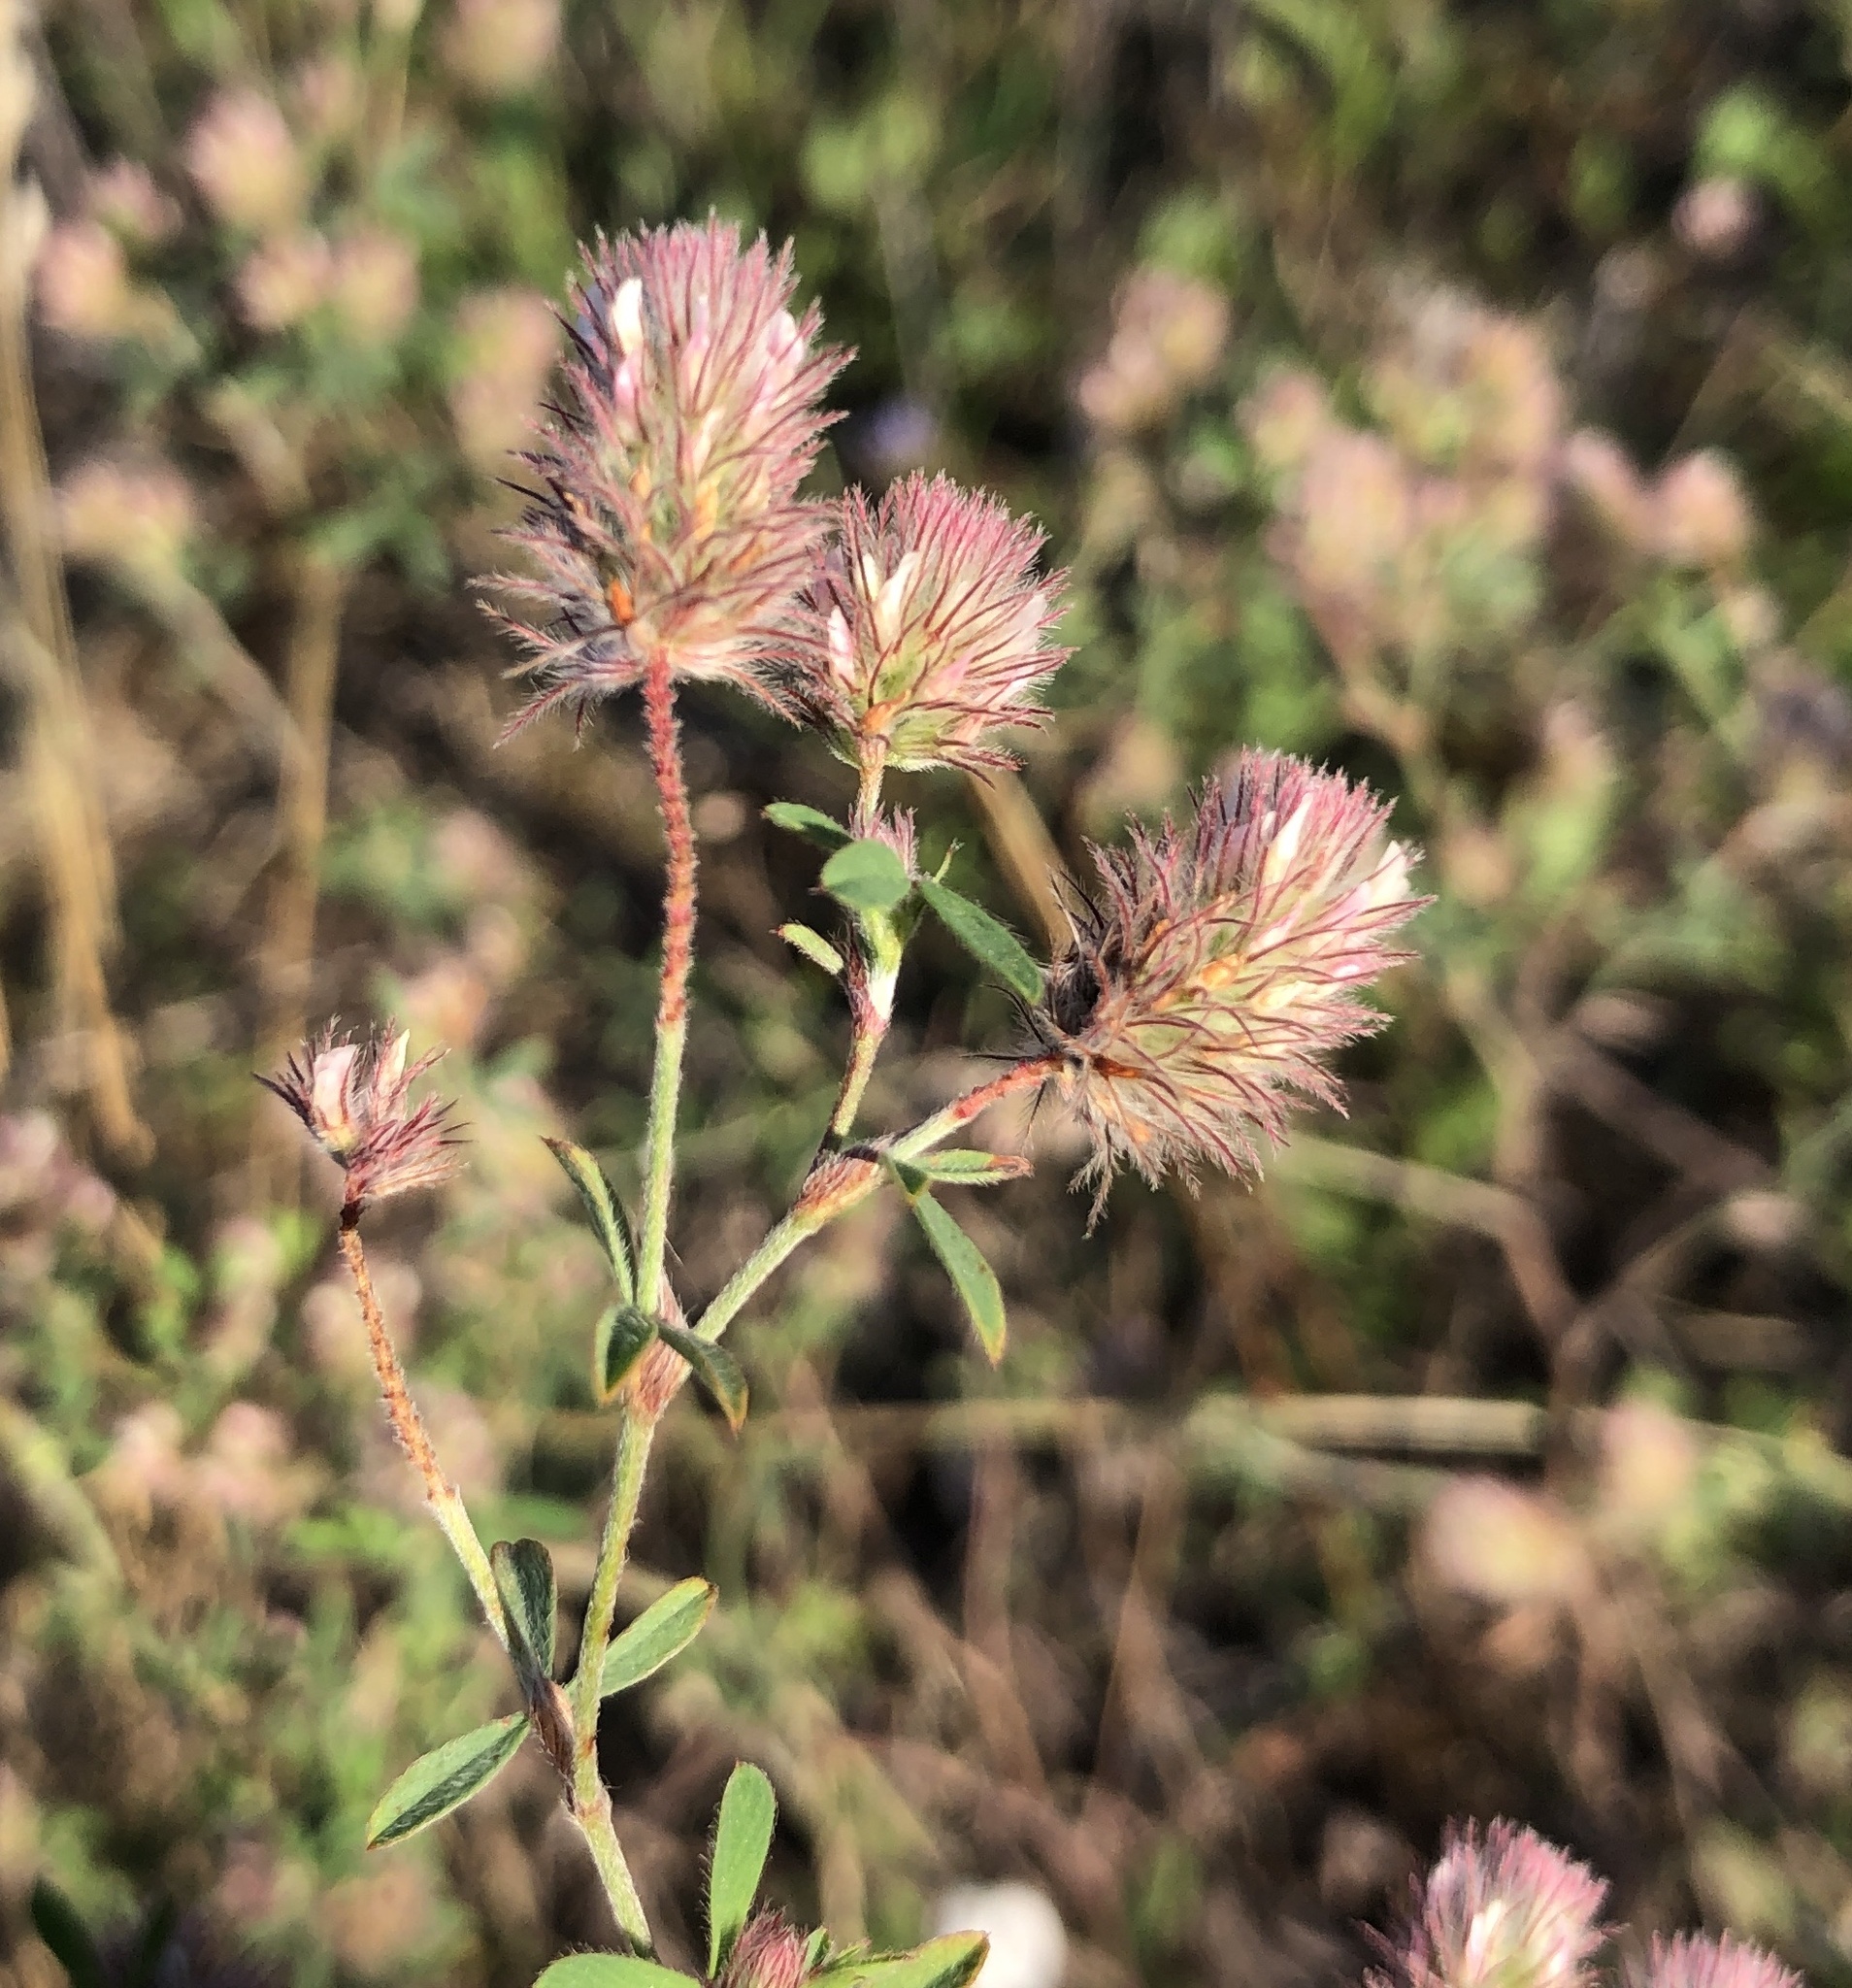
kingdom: Plantae
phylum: Tracheophyta
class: Magnoliopsida
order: Fabales
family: Fabaceae
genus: Trifolium
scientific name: Trifolium arvense
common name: Hare's-foot clover
